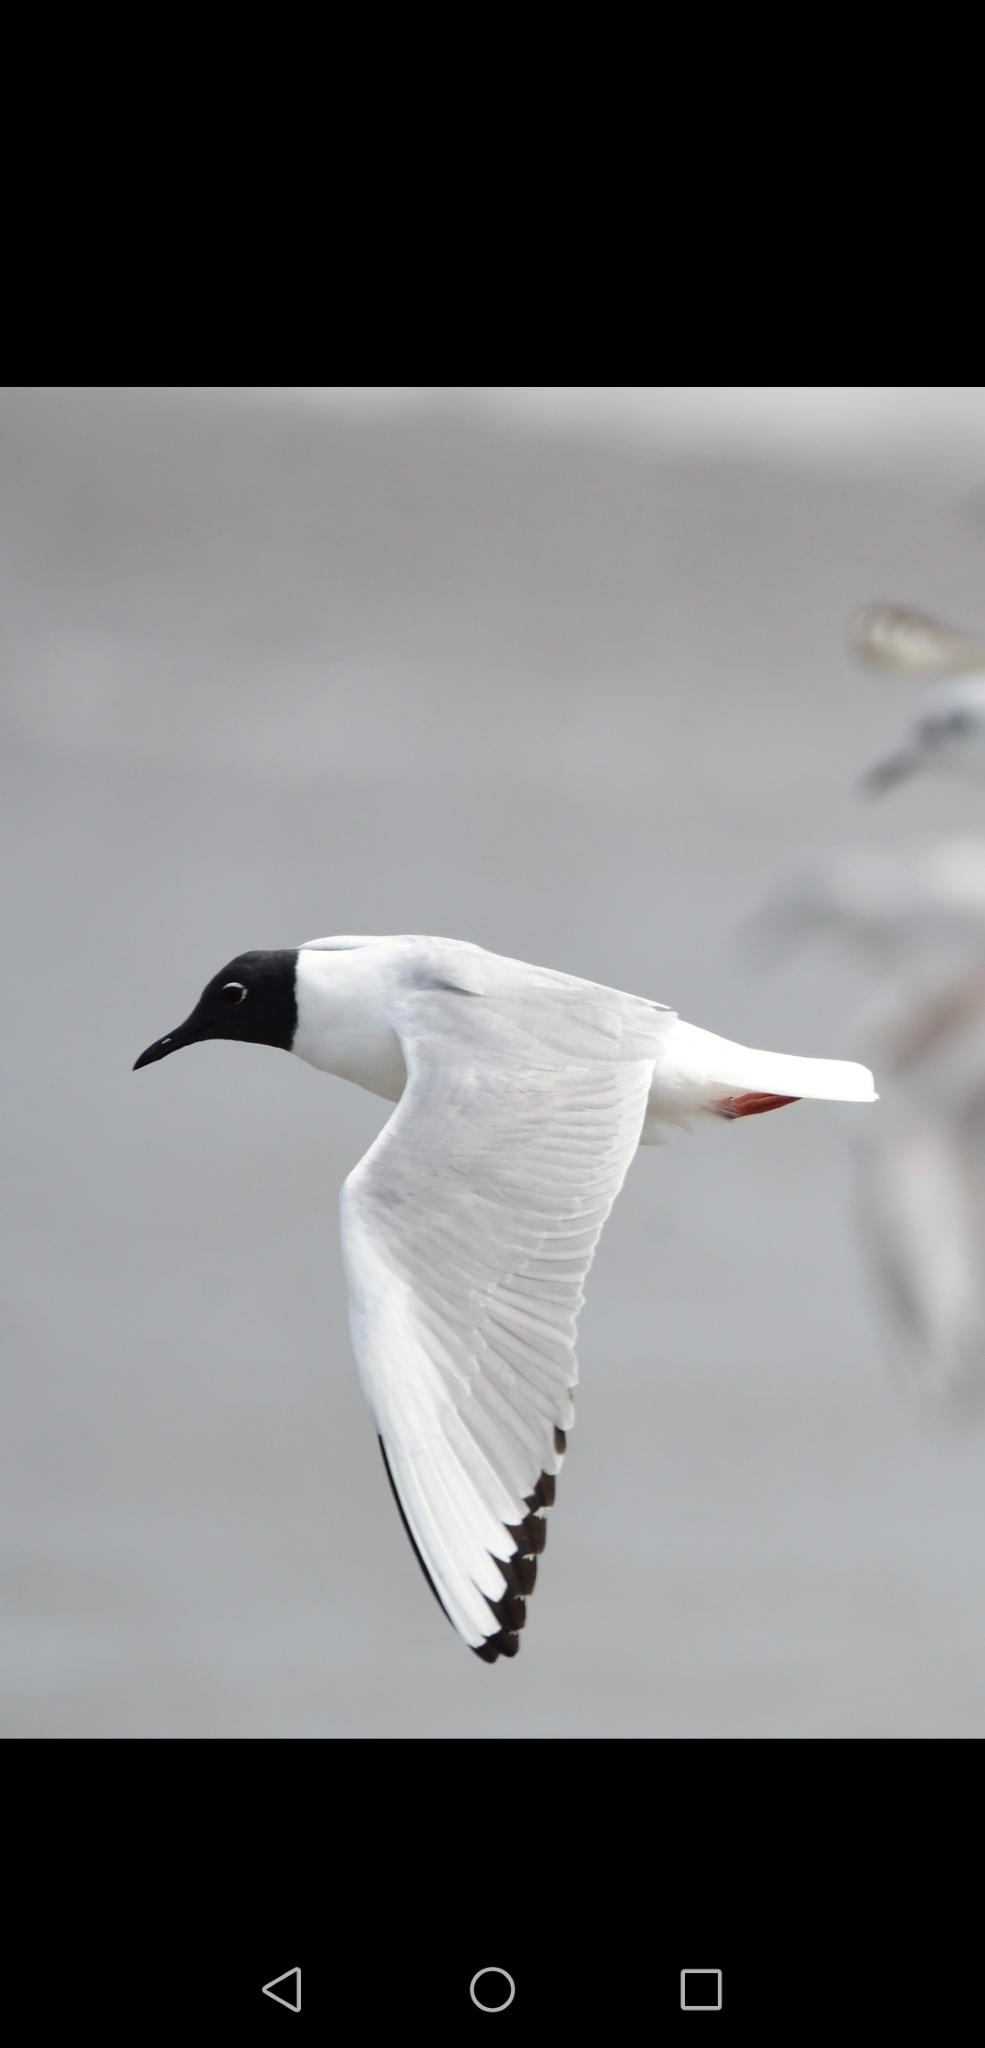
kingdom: Animalia
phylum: Chordata
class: Aves
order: Charadriiformes
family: Laridae
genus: Chroicocephalus
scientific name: Chroicocephalus philadelphia
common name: Bonaparte's gull
